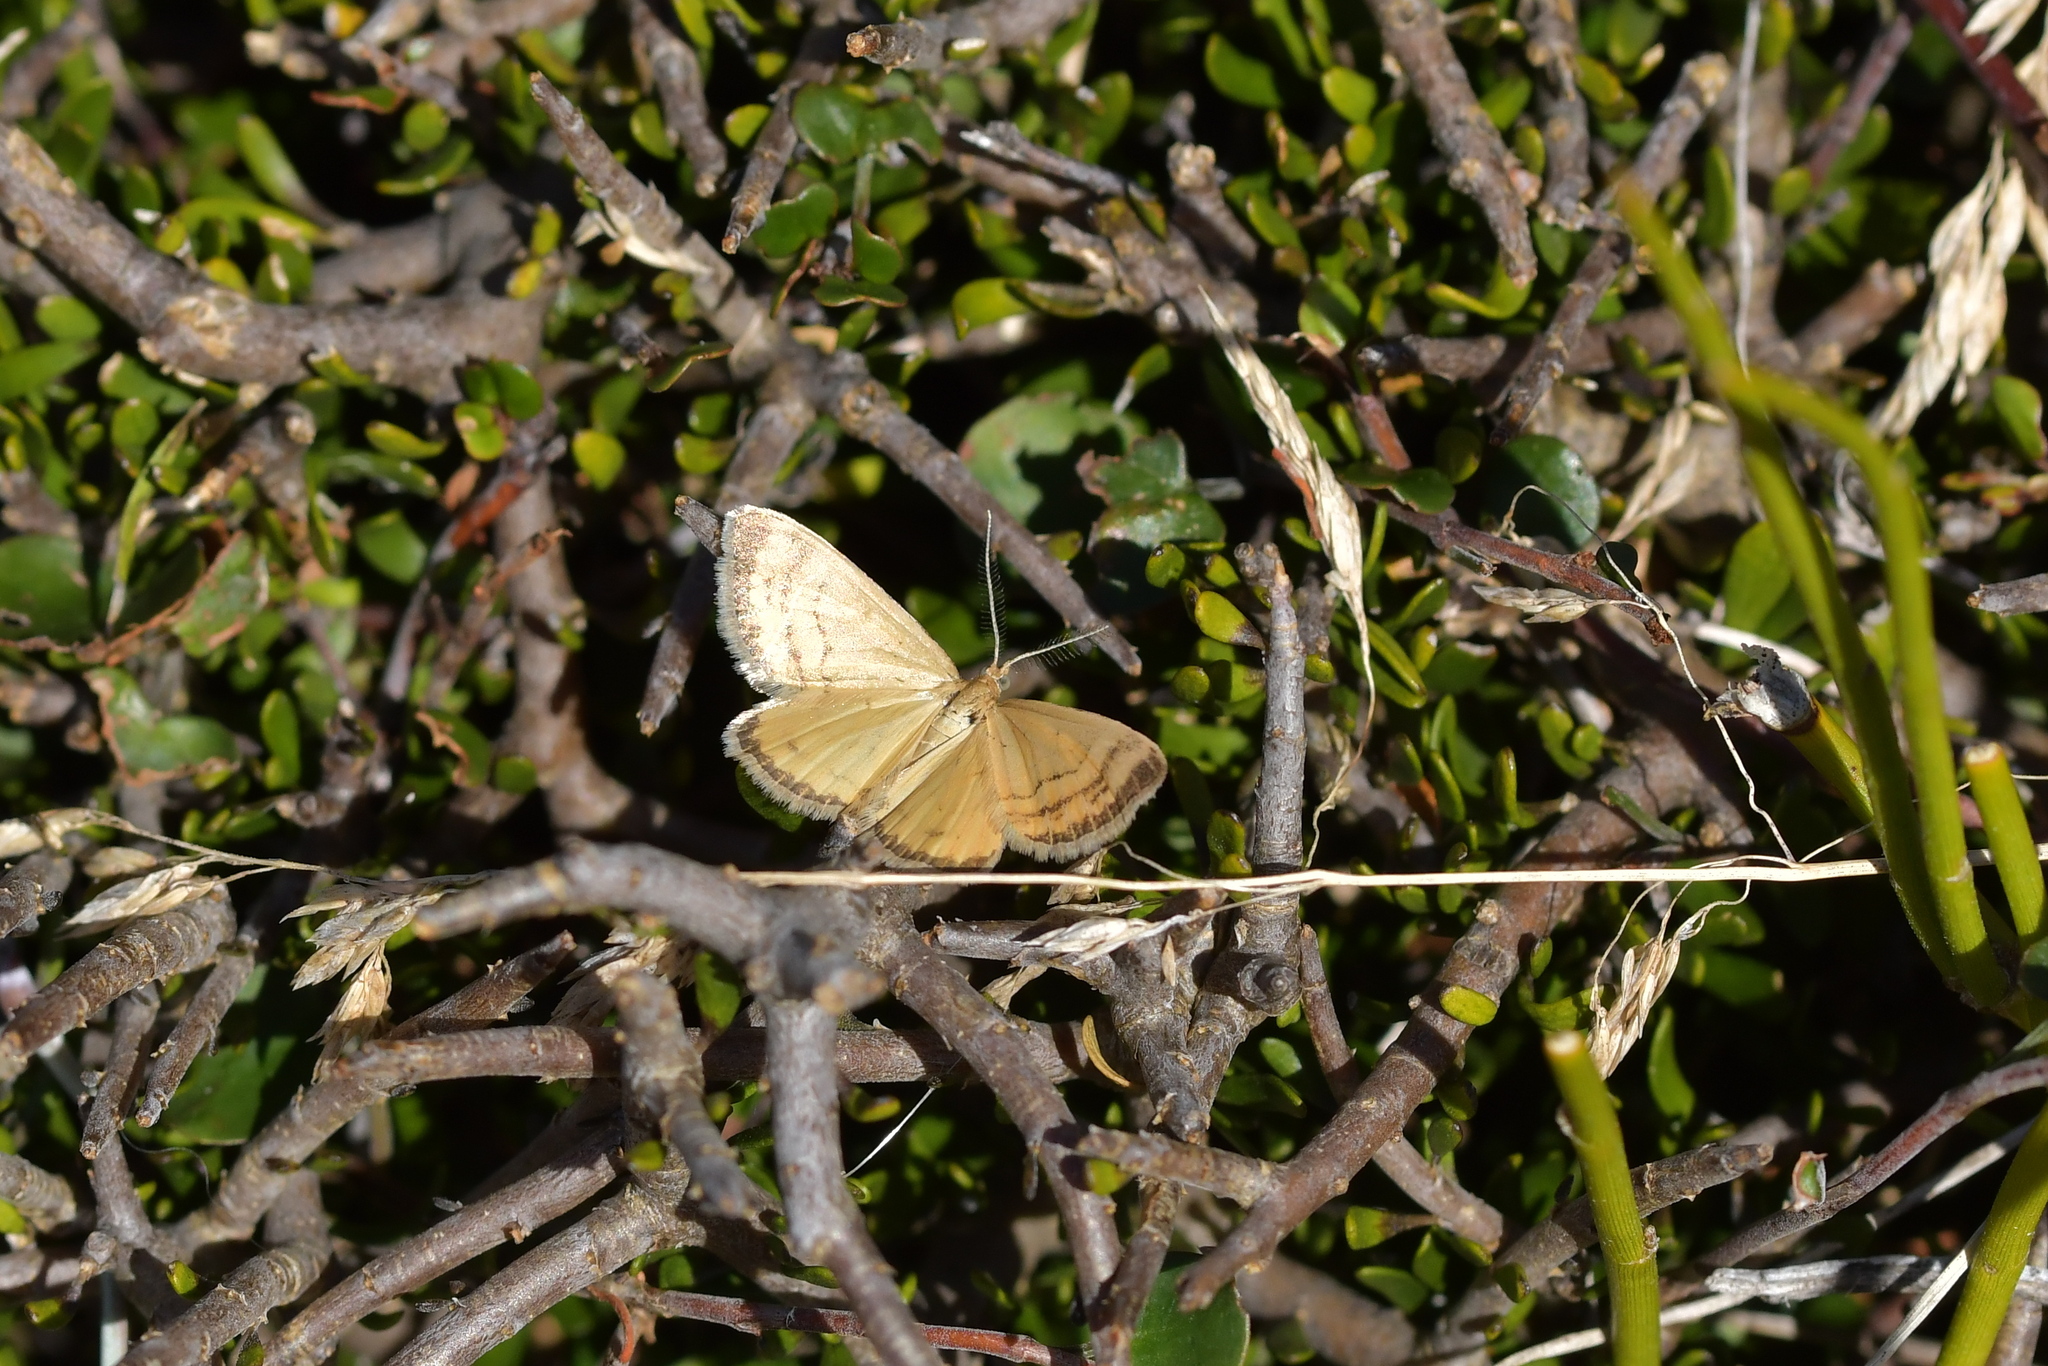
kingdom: Animalia
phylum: Arthropoda
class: Insecta
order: Lepidoptera
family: Geometridae
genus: Asaphodes
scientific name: Asaphodes abrogata
